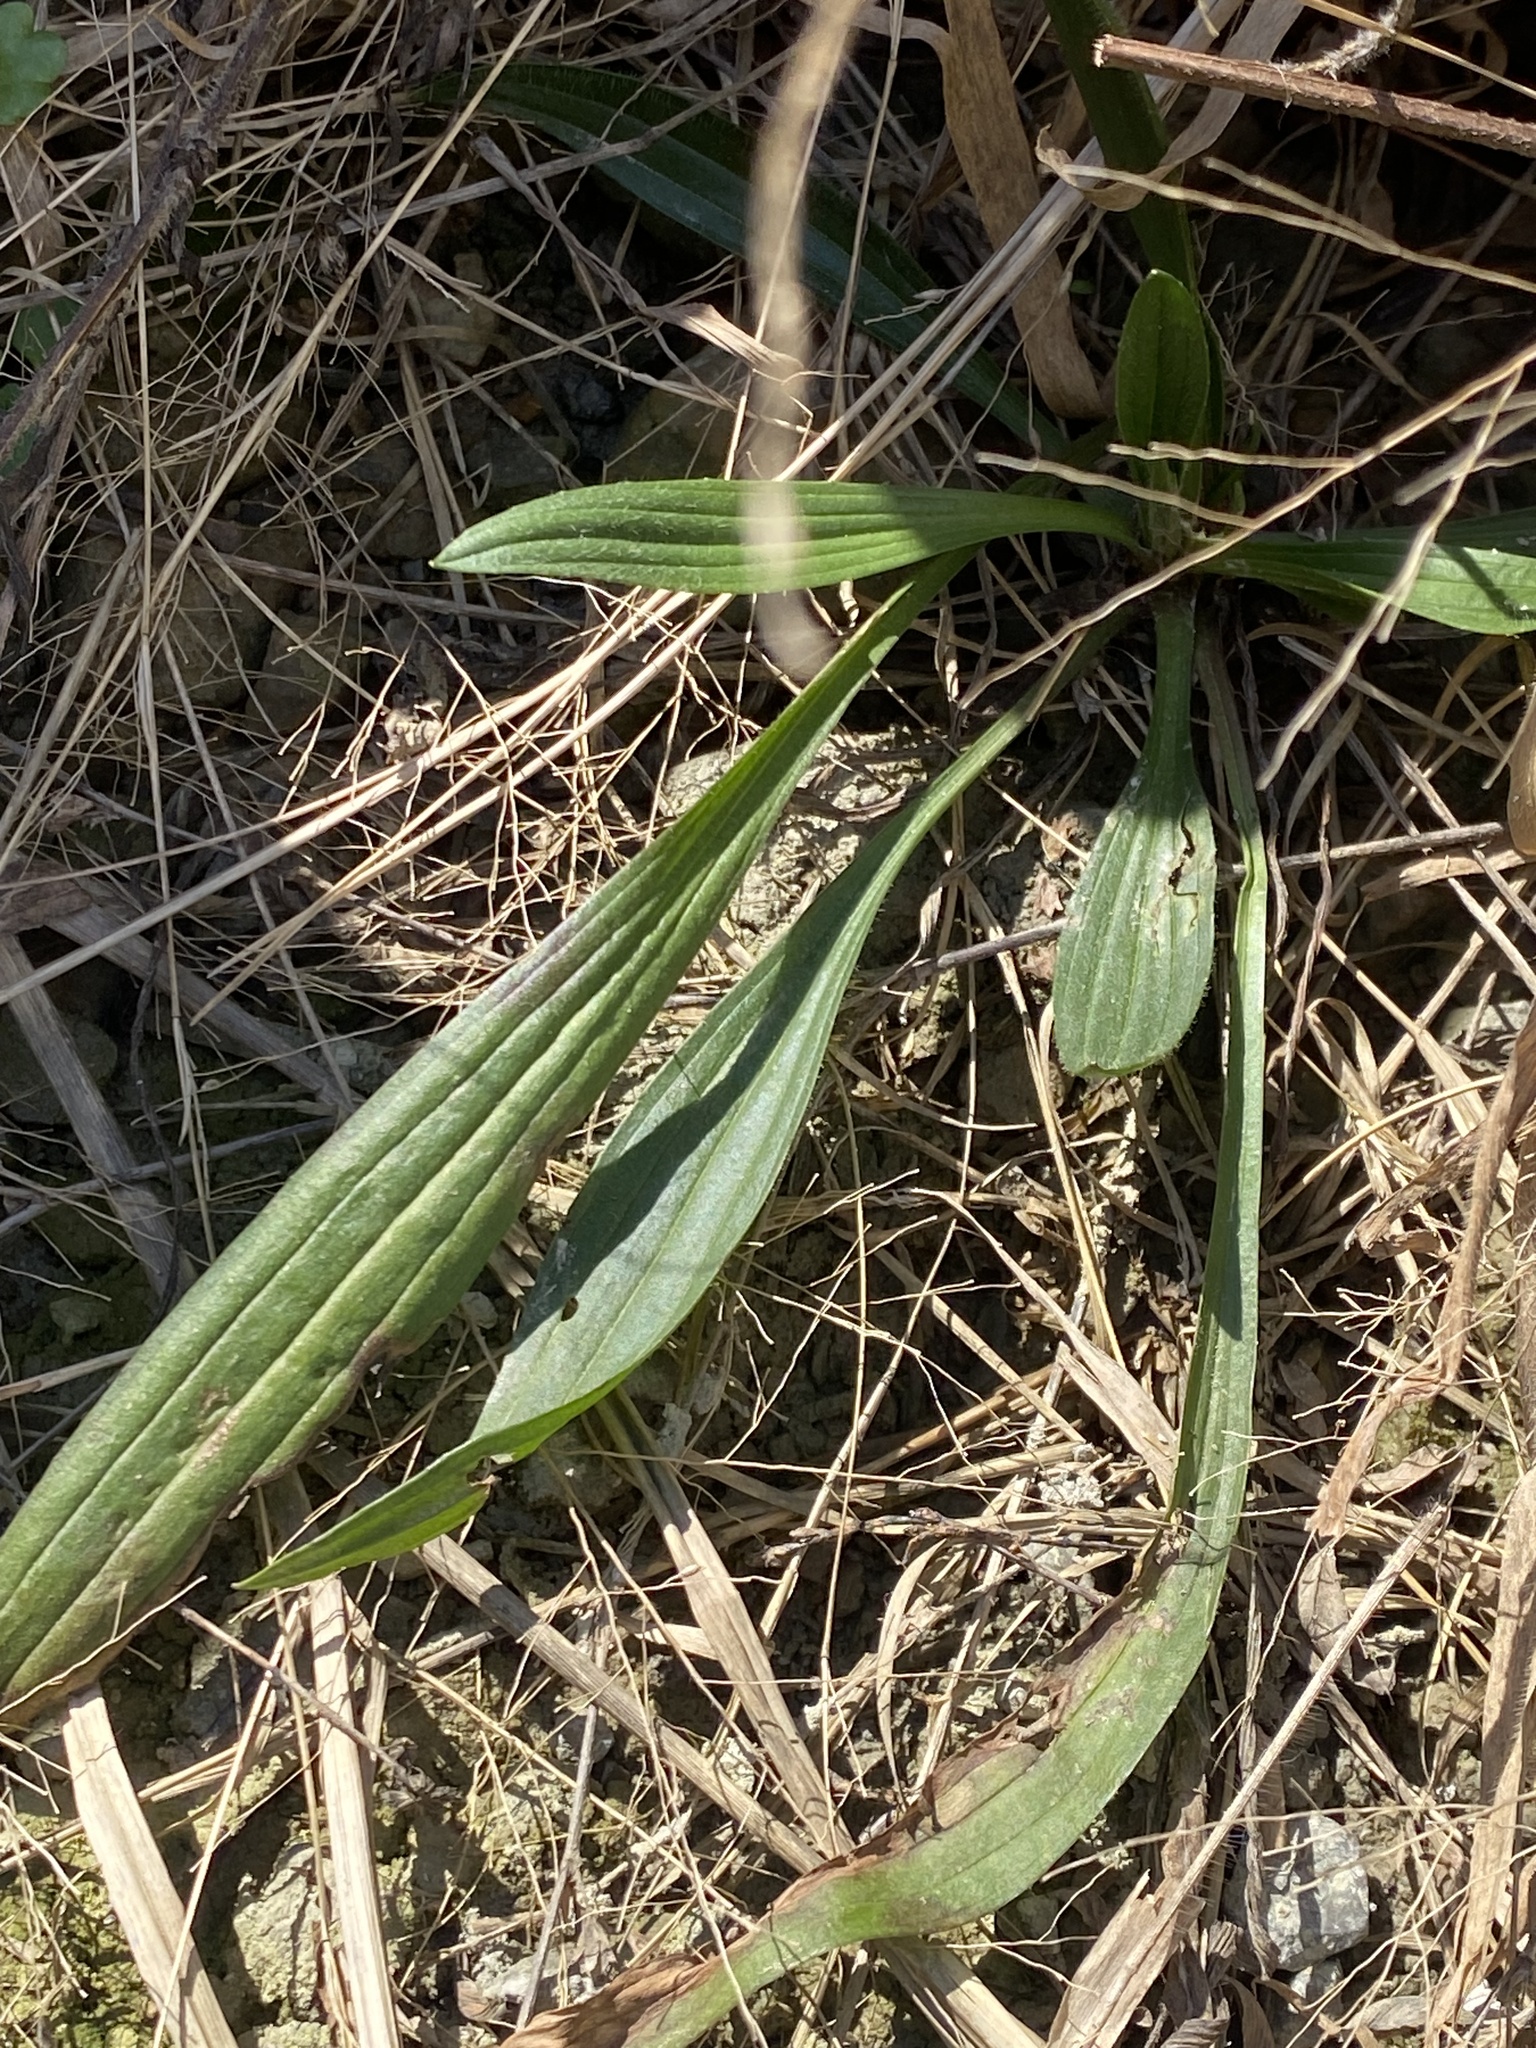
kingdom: Plantae
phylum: Tracheophyta
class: Magnoliopsida
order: Lamiales
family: Plantaginaceae
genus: Plantago
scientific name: Plantago lanceolata
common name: Ribwort plantain
